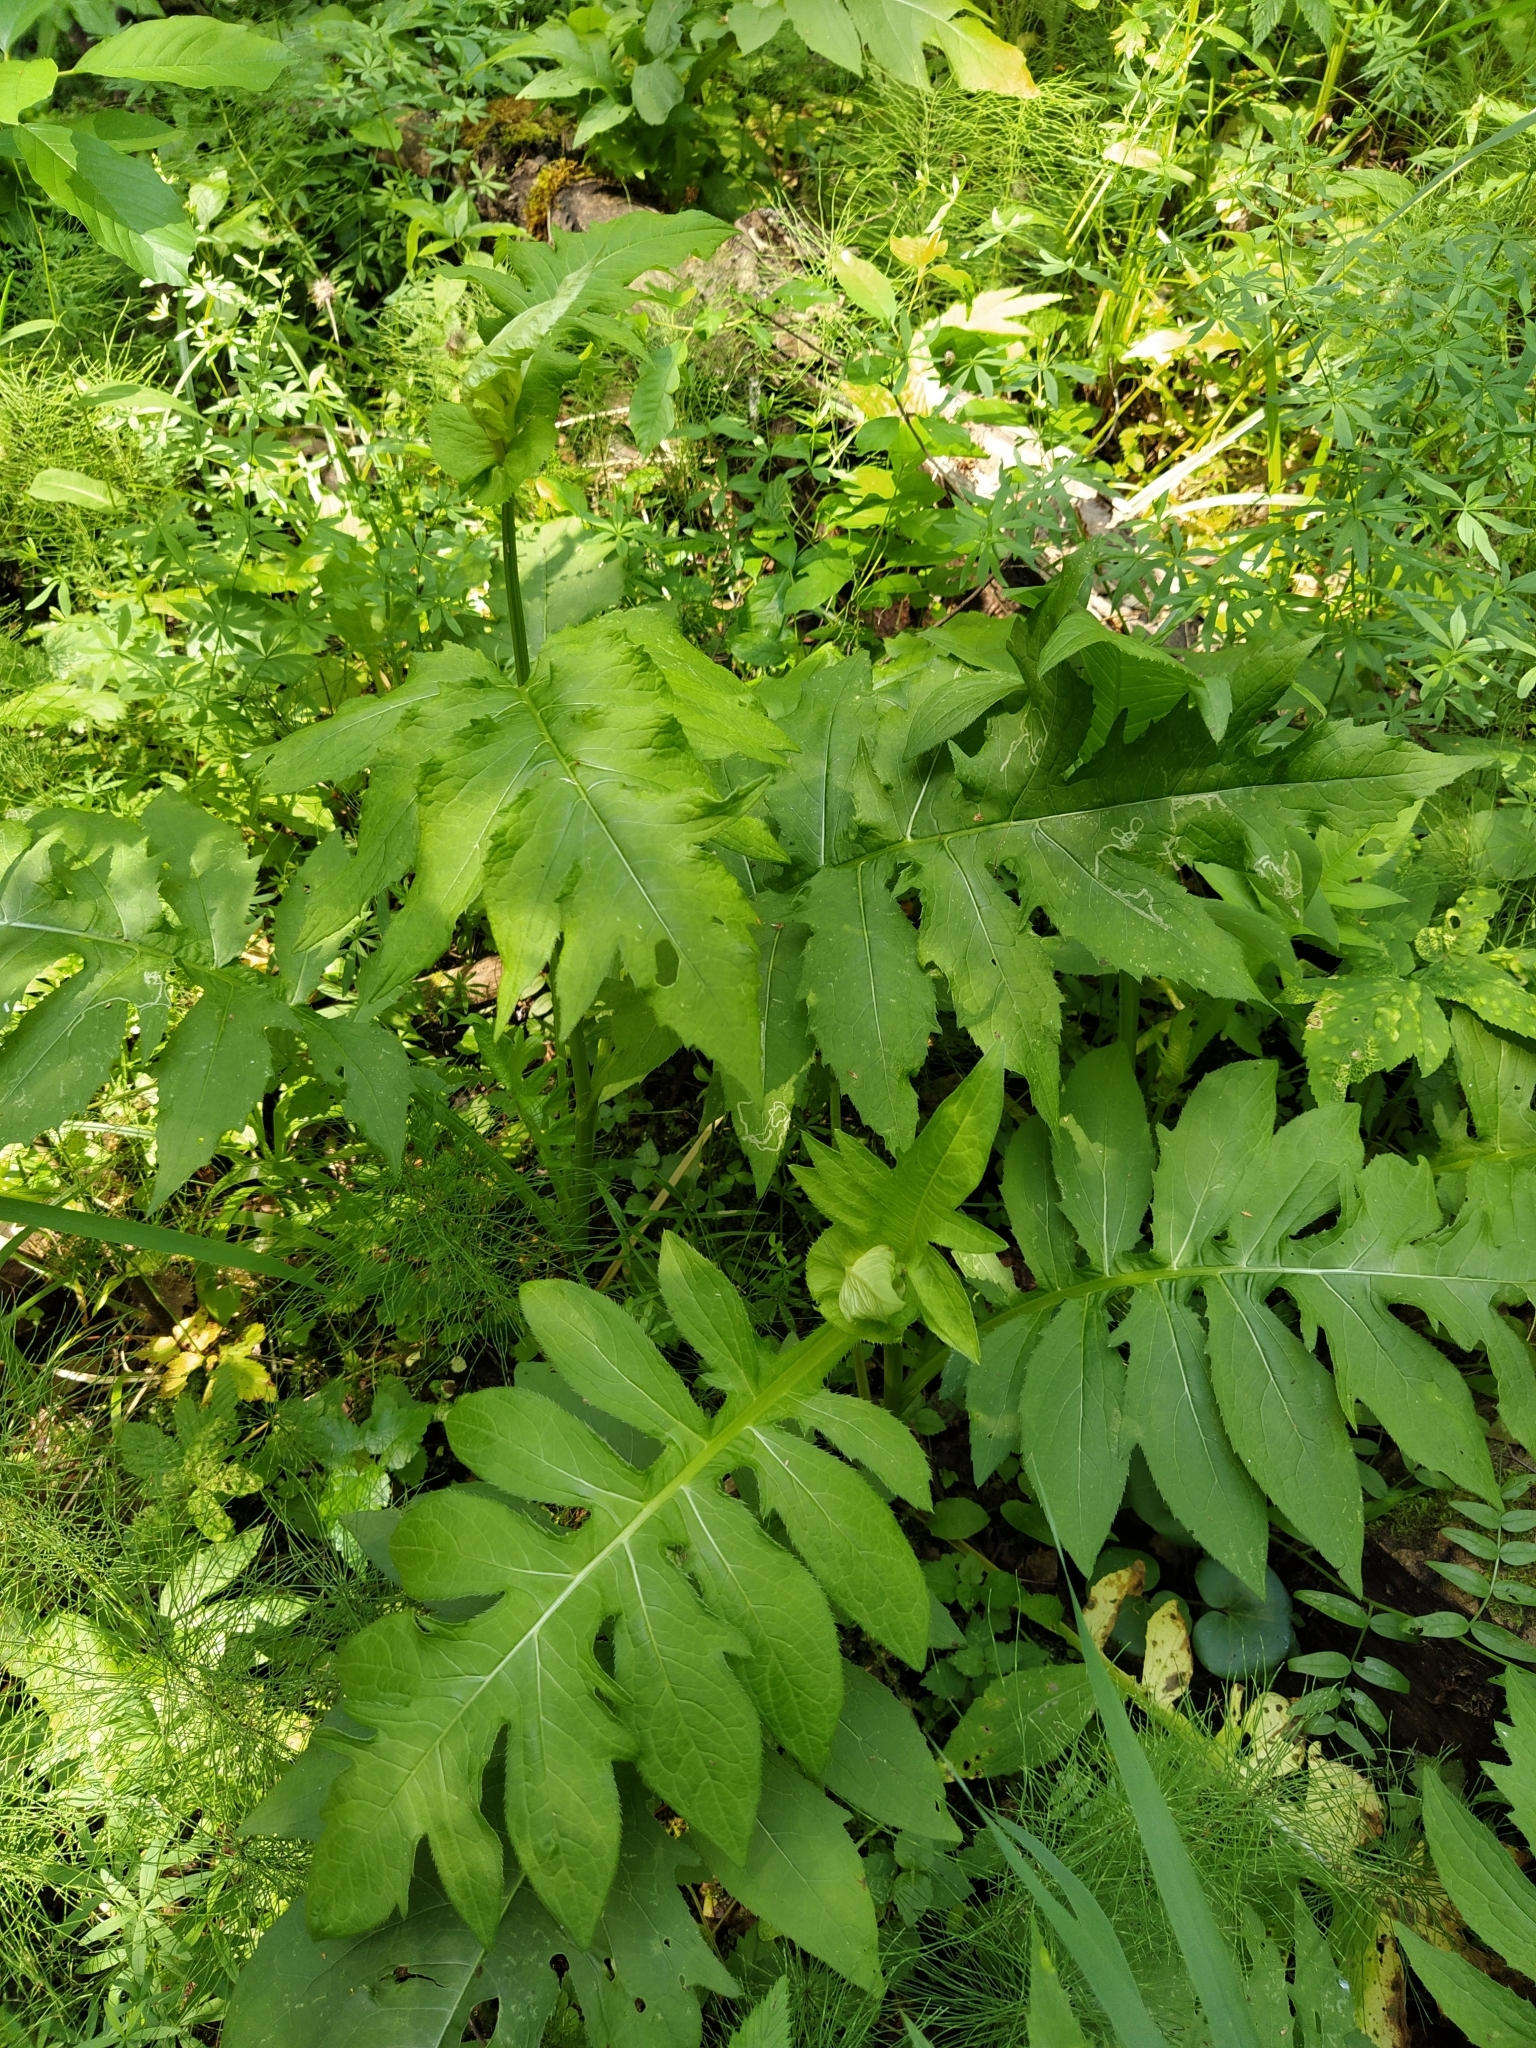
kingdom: Plantae
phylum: Tracheophyta
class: Magnoliopsida
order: Asterales
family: Asteraceae
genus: Cirsium
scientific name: Cirsium oleraceum
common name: Cabbage thistle
